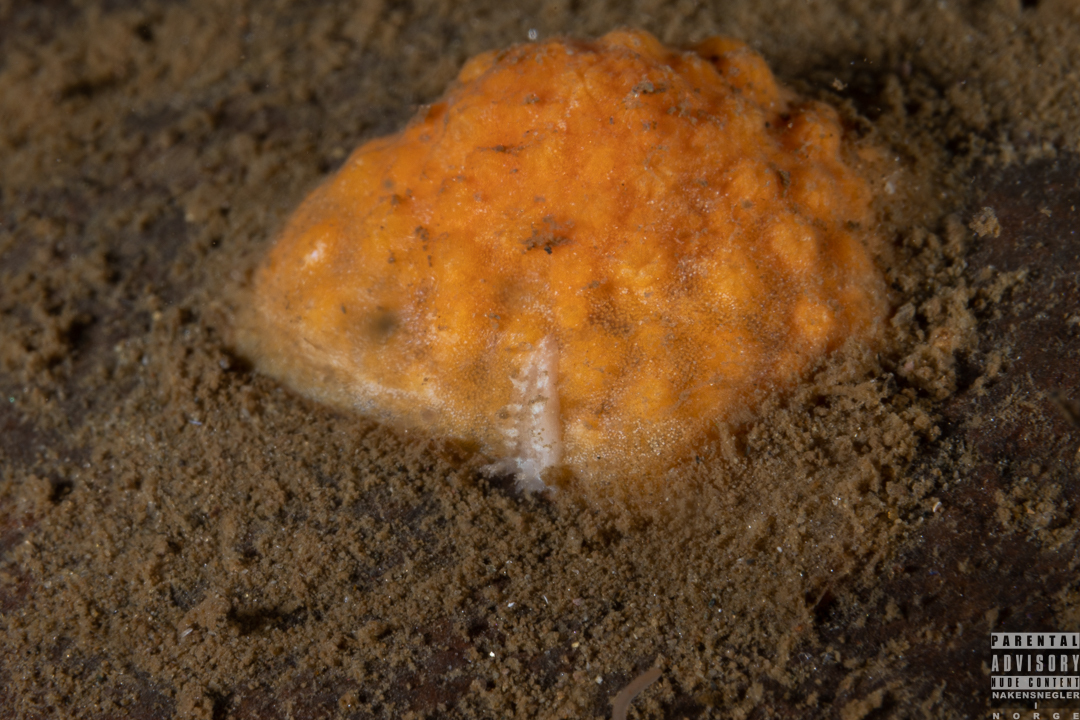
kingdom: Animalia
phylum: Mollusca
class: Gastropoda
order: Nudibranchia
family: Tritoniidae
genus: Duvaucelia
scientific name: Duvaucelia plebeia
